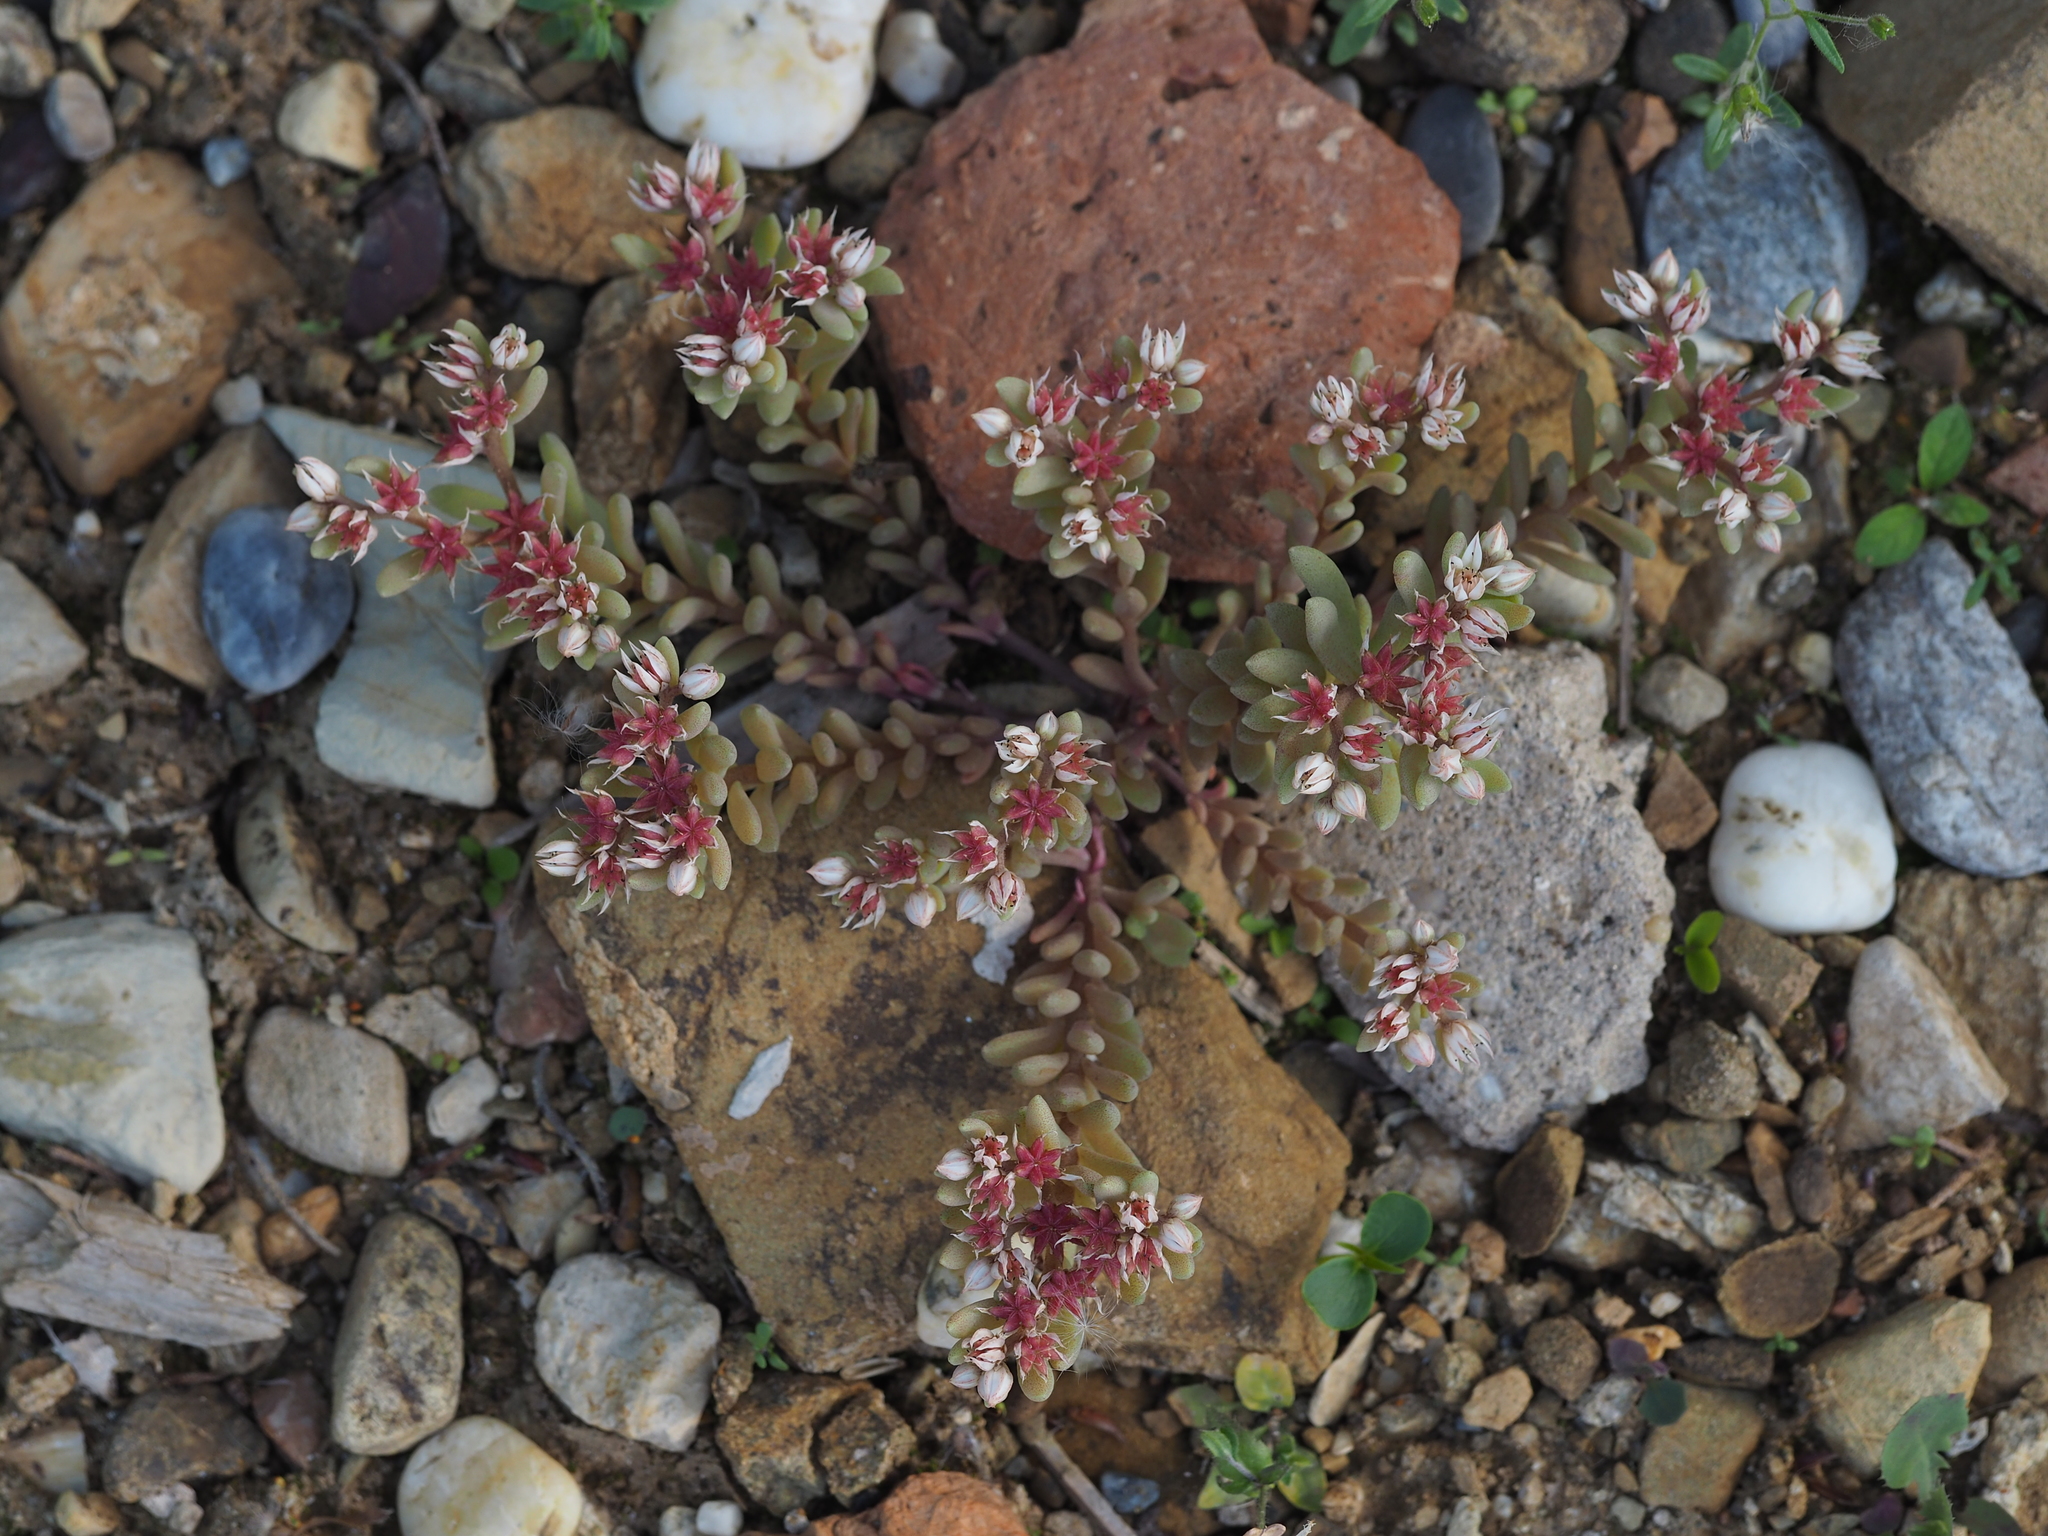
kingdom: Plantae
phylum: Tracheophyta
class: Magnoliopsida
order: Saxifragales
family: Crassulaceae
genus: Sedum
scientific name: Sedum hispanicum
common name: Spanish stonecrop
